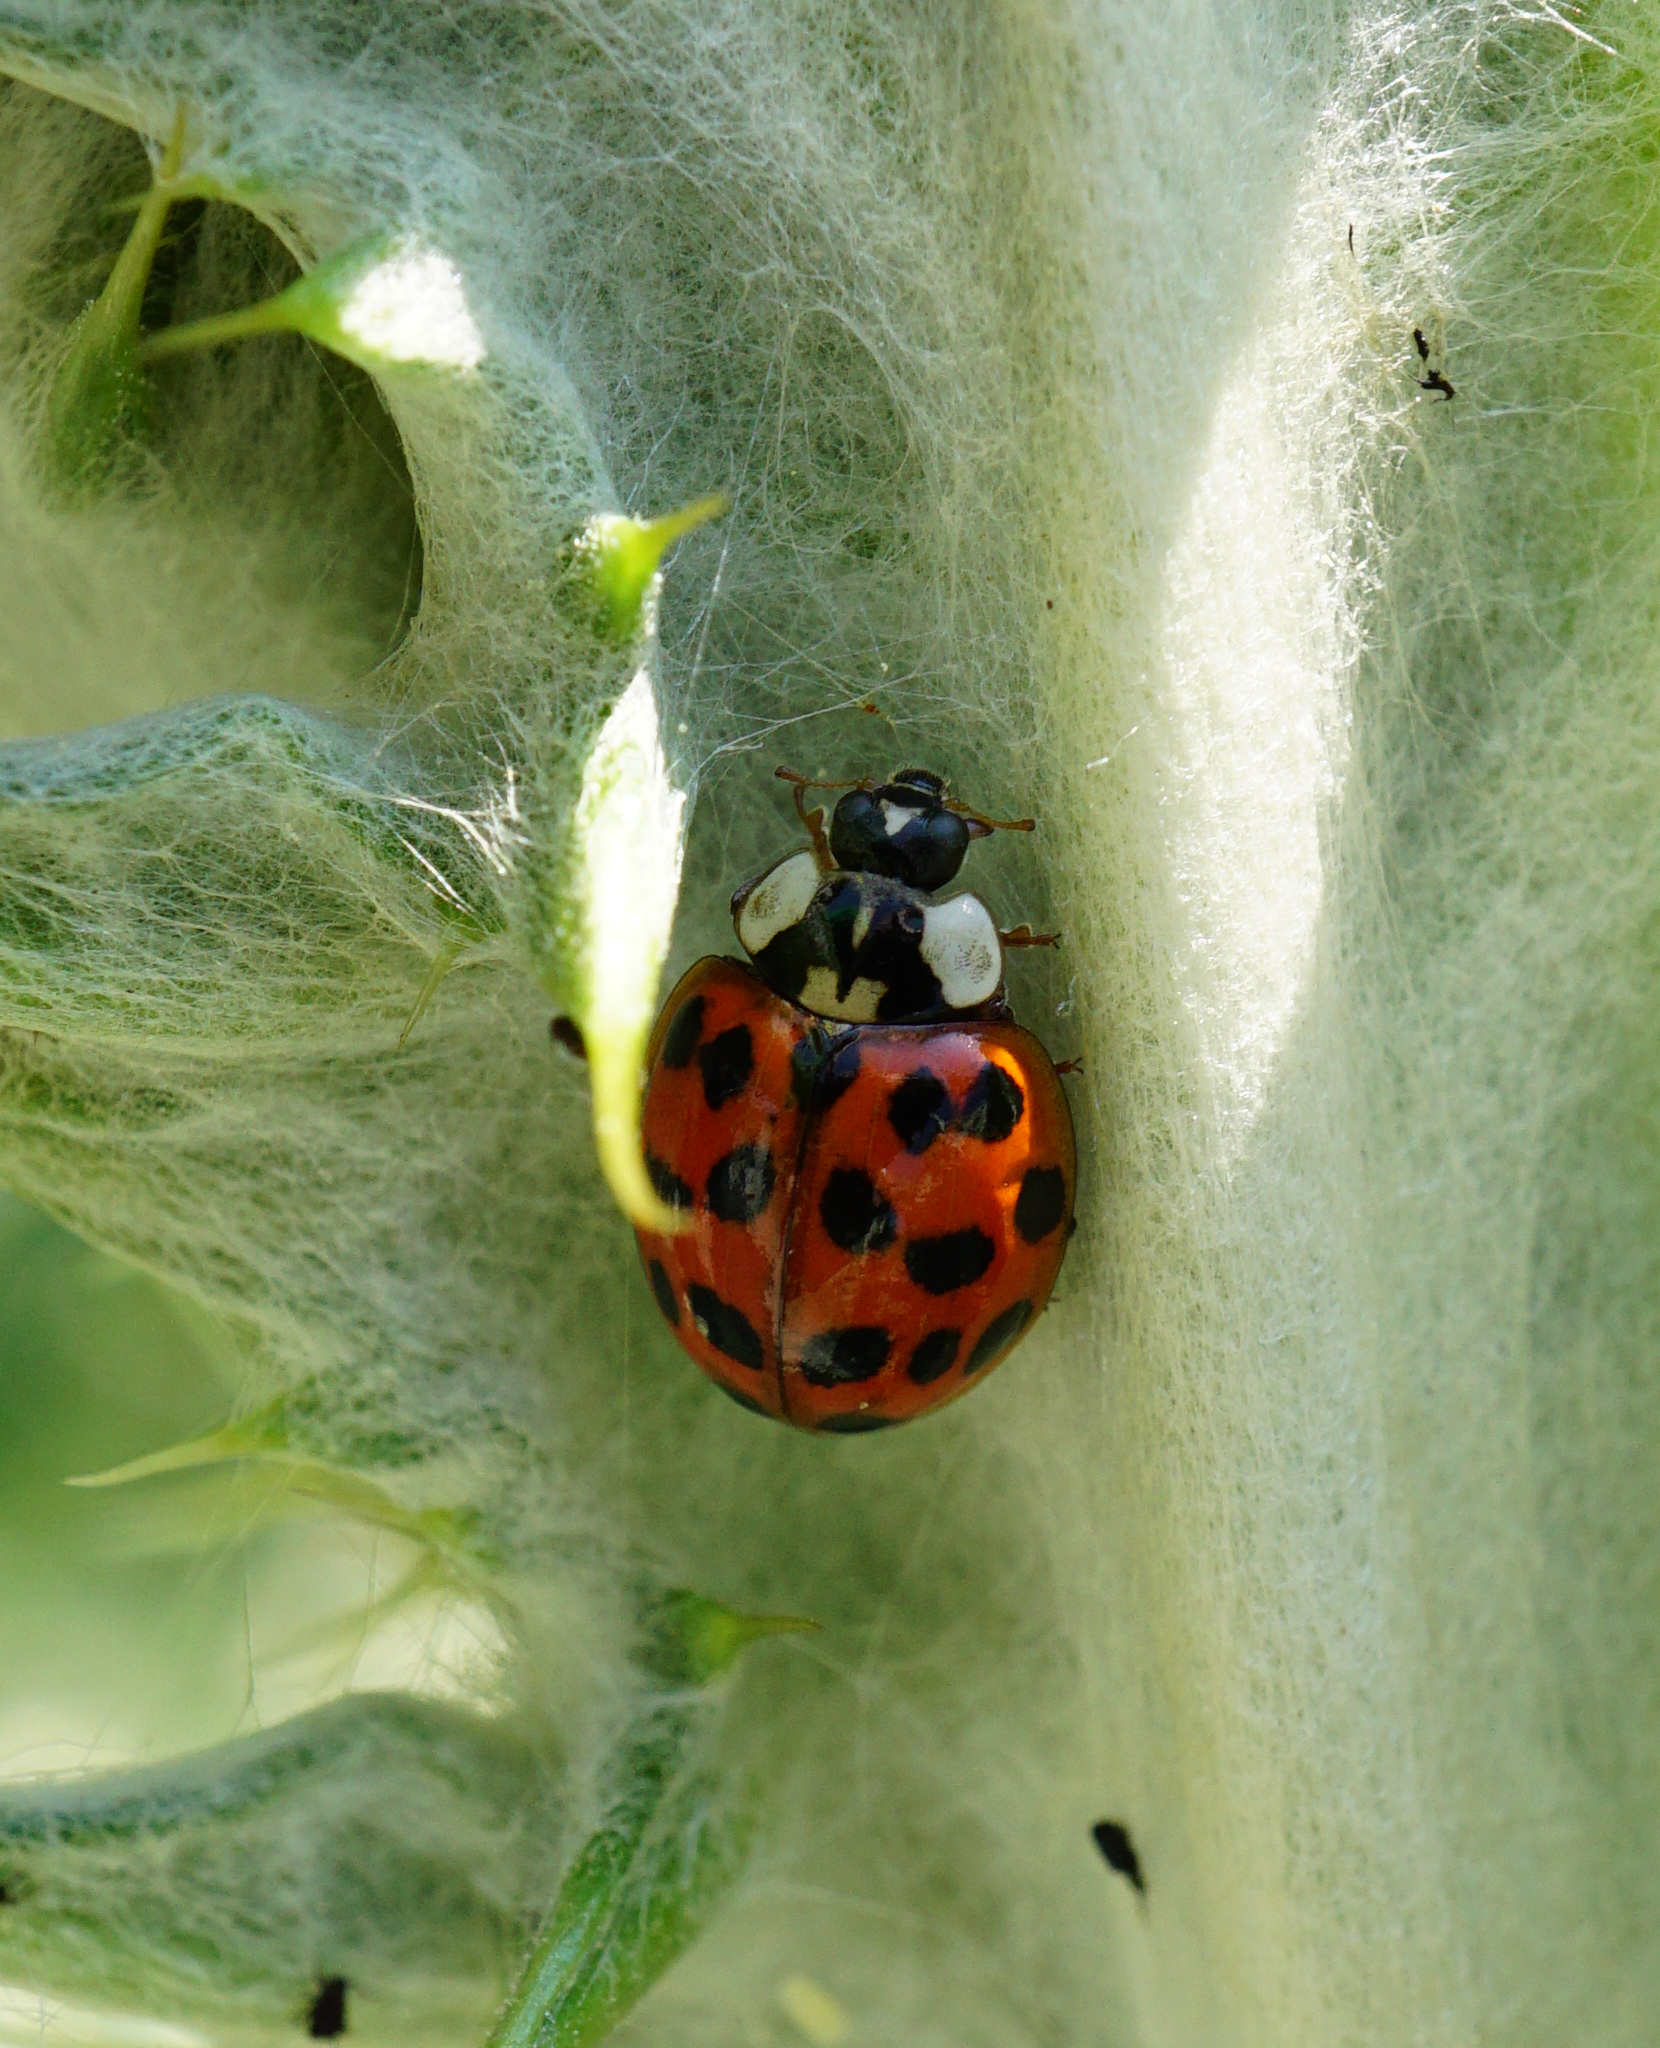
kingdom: Animalia
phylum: Arthropoda
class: Insecta
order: Coleoptera
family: Coccinellidae
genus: Harmonia
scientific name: Harmonia axyridis
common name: Harlequin ladybird
